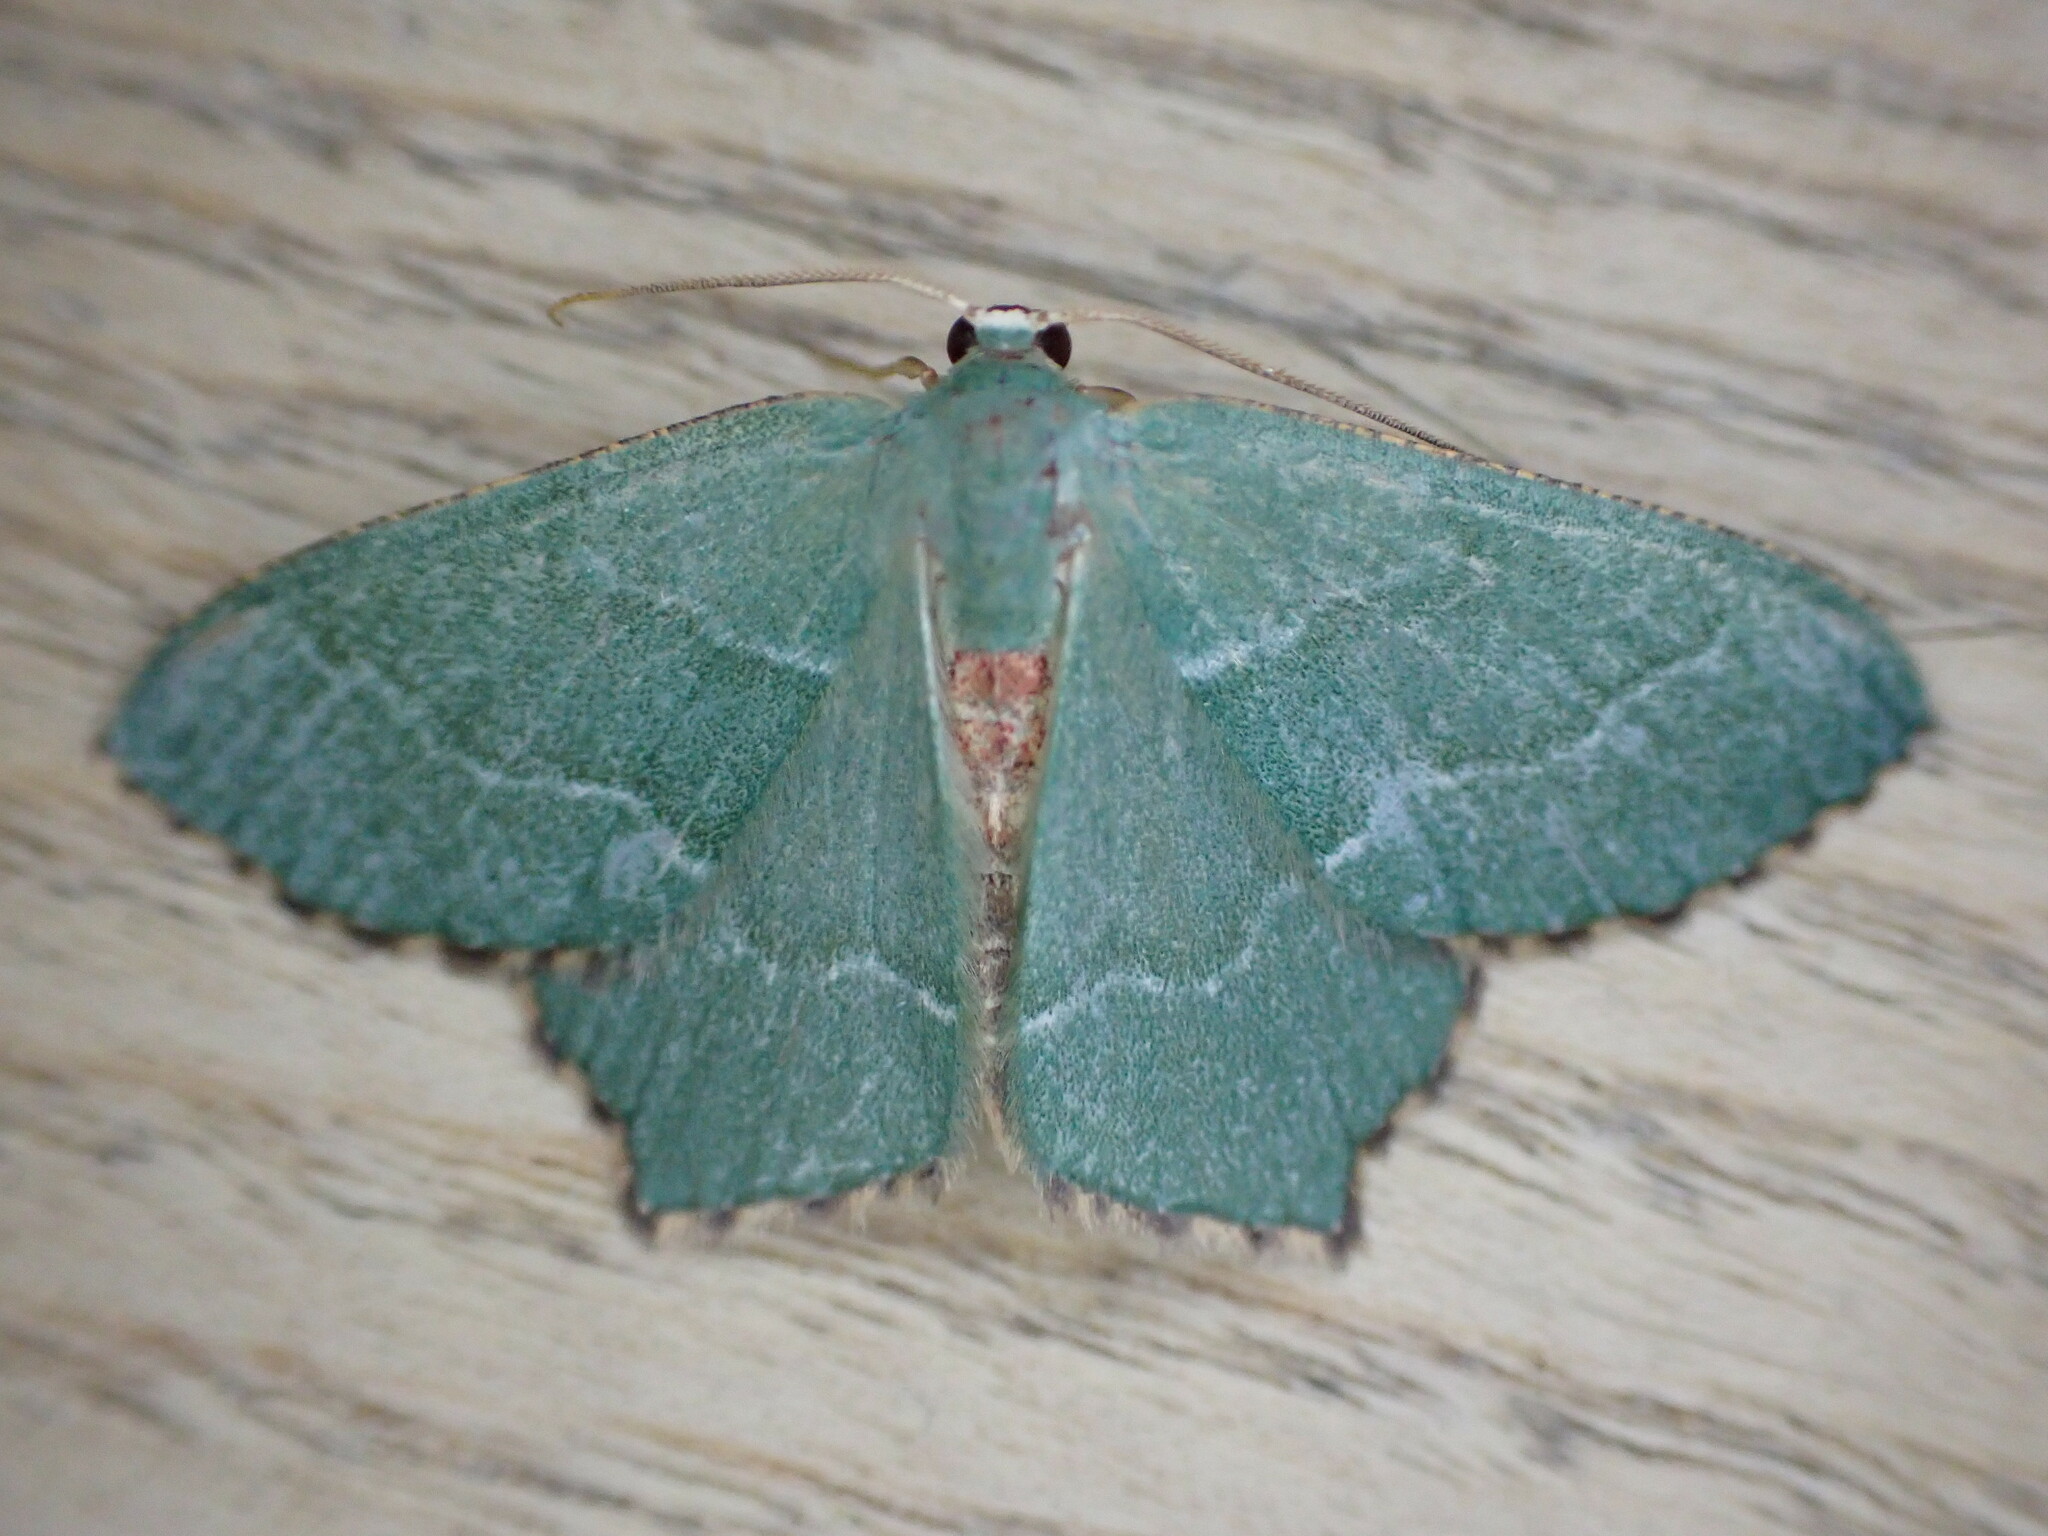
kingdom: Animalia
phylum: Arthropoda
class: Insecta
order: Lepidoptera
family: Geometridae
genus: Hemithea
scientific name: Hemithea aestivaria
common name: Common emerald
